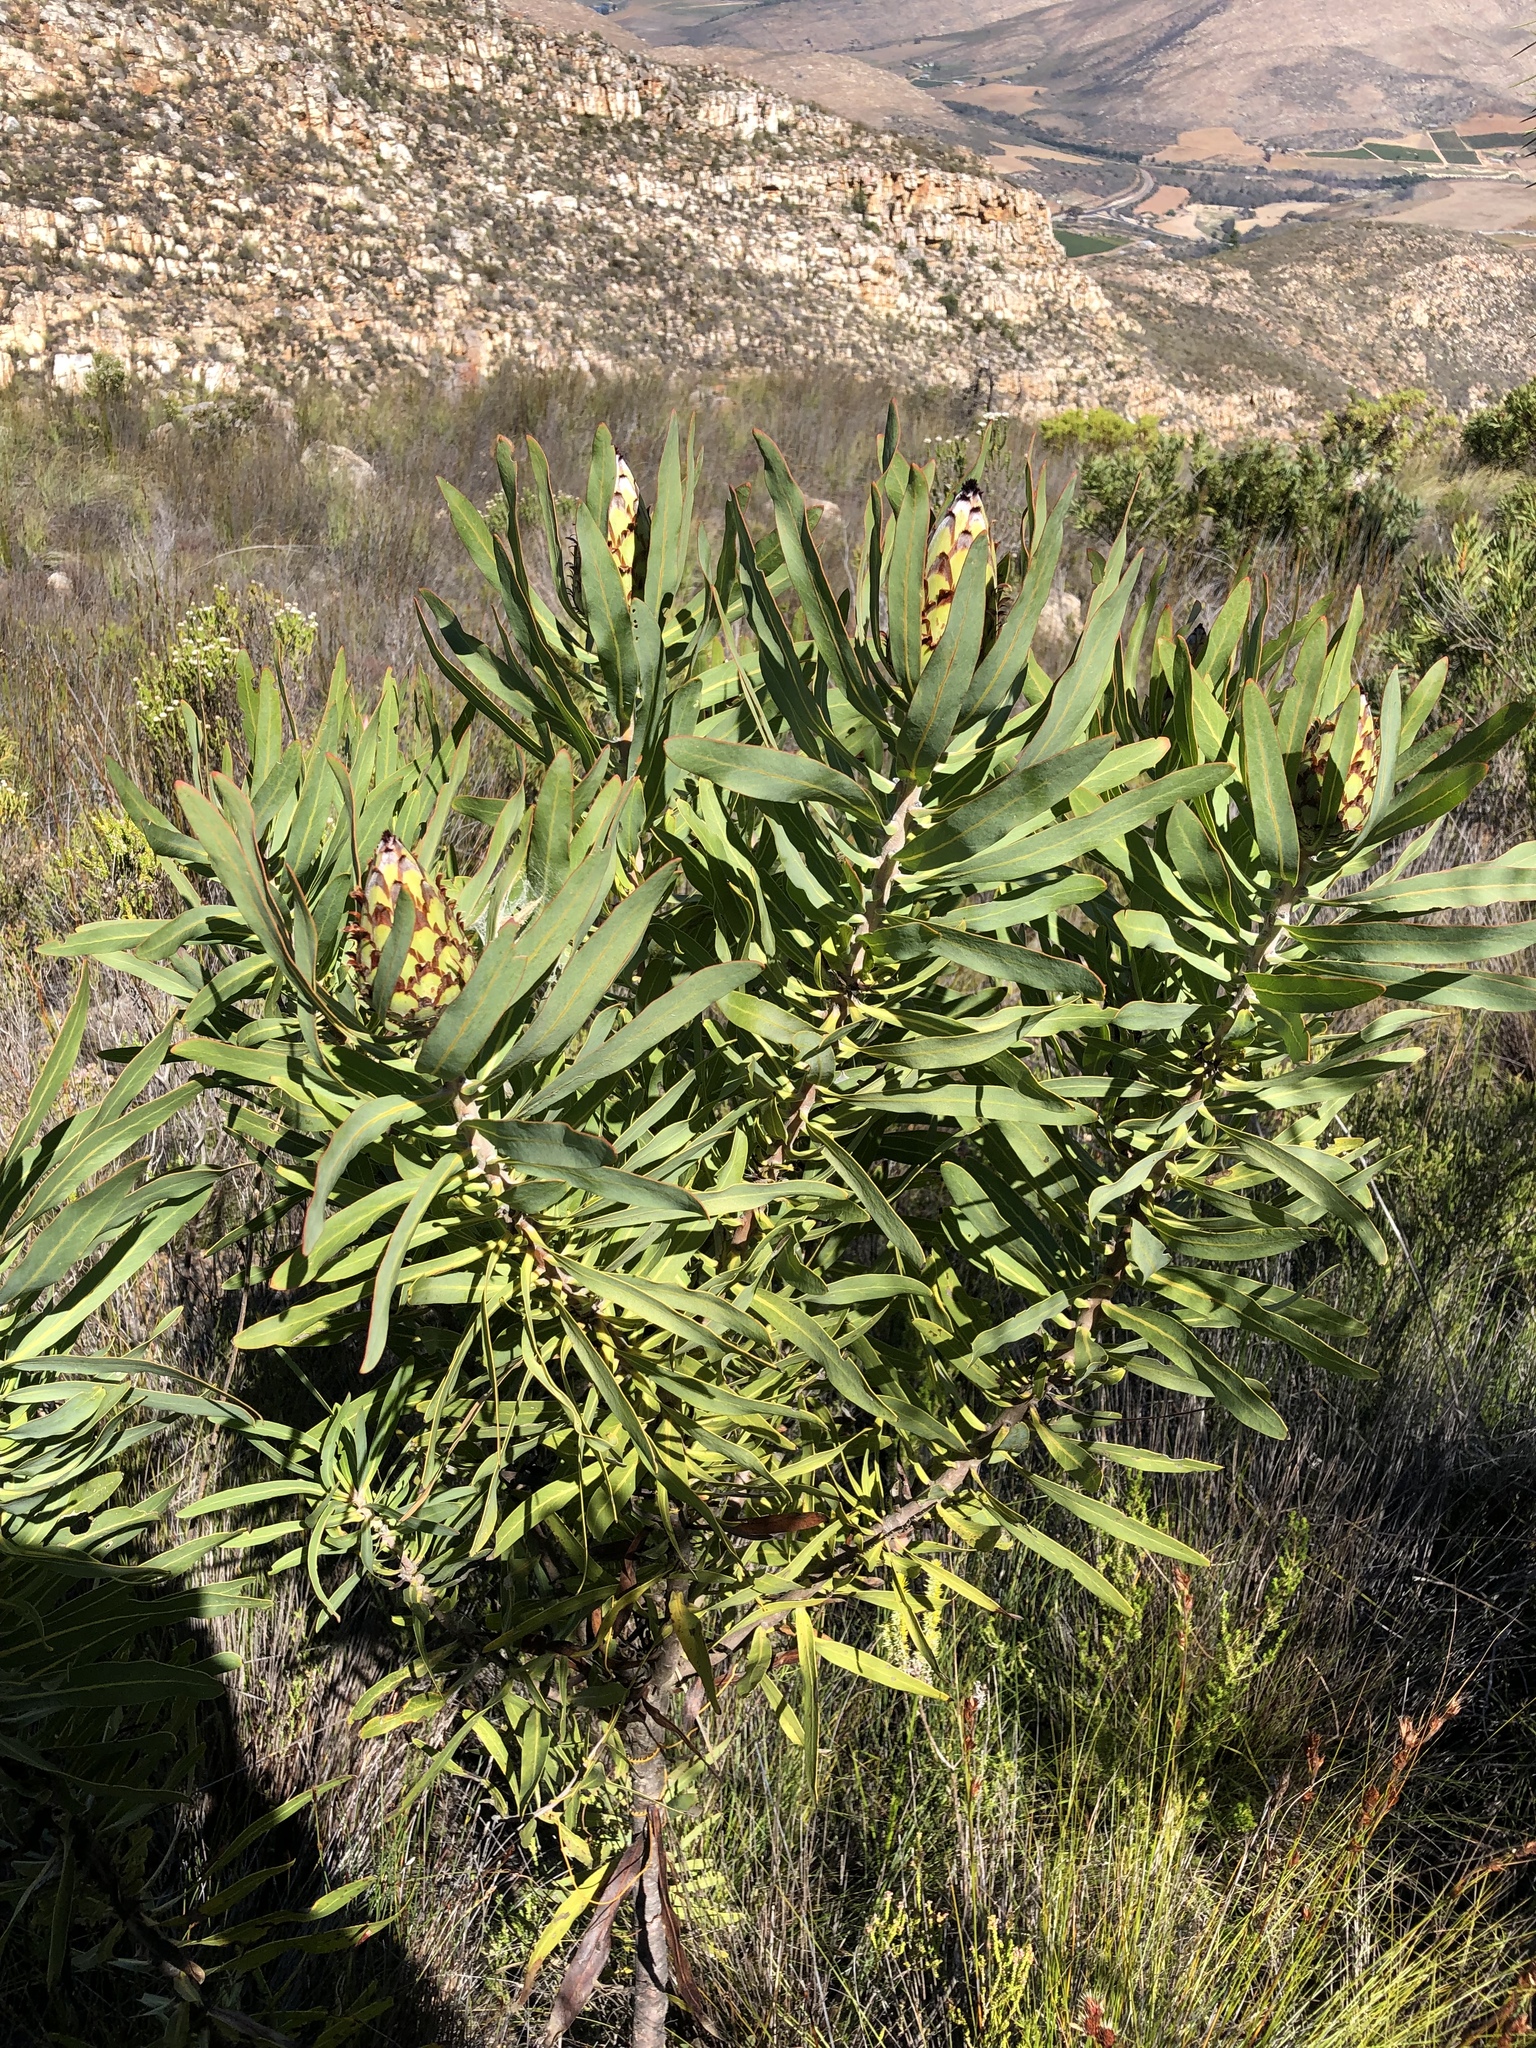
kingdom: Plantae
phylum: Tracheophyta
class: Magnoliopsida
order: Proteales
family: Proteaceae
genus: Protea
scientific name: Protea neriifolia
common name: Blue sugarbush
